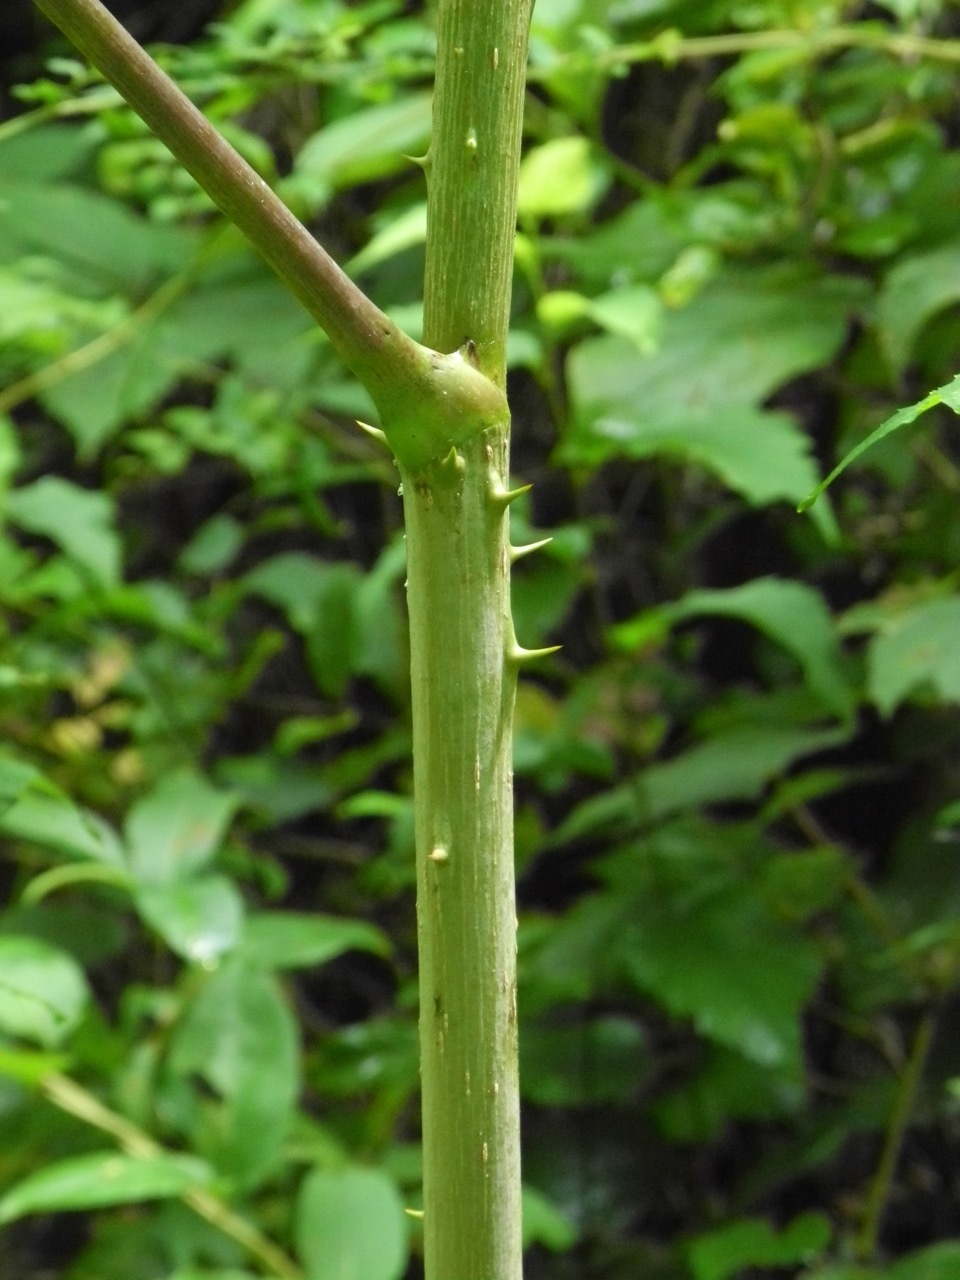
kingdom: Plantae
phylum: Tracheophyta
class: Magnoliopsida
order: Apiales
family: Araliaceae
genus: Aralia
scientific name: Aralia spinosa
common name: Hercules'-club
